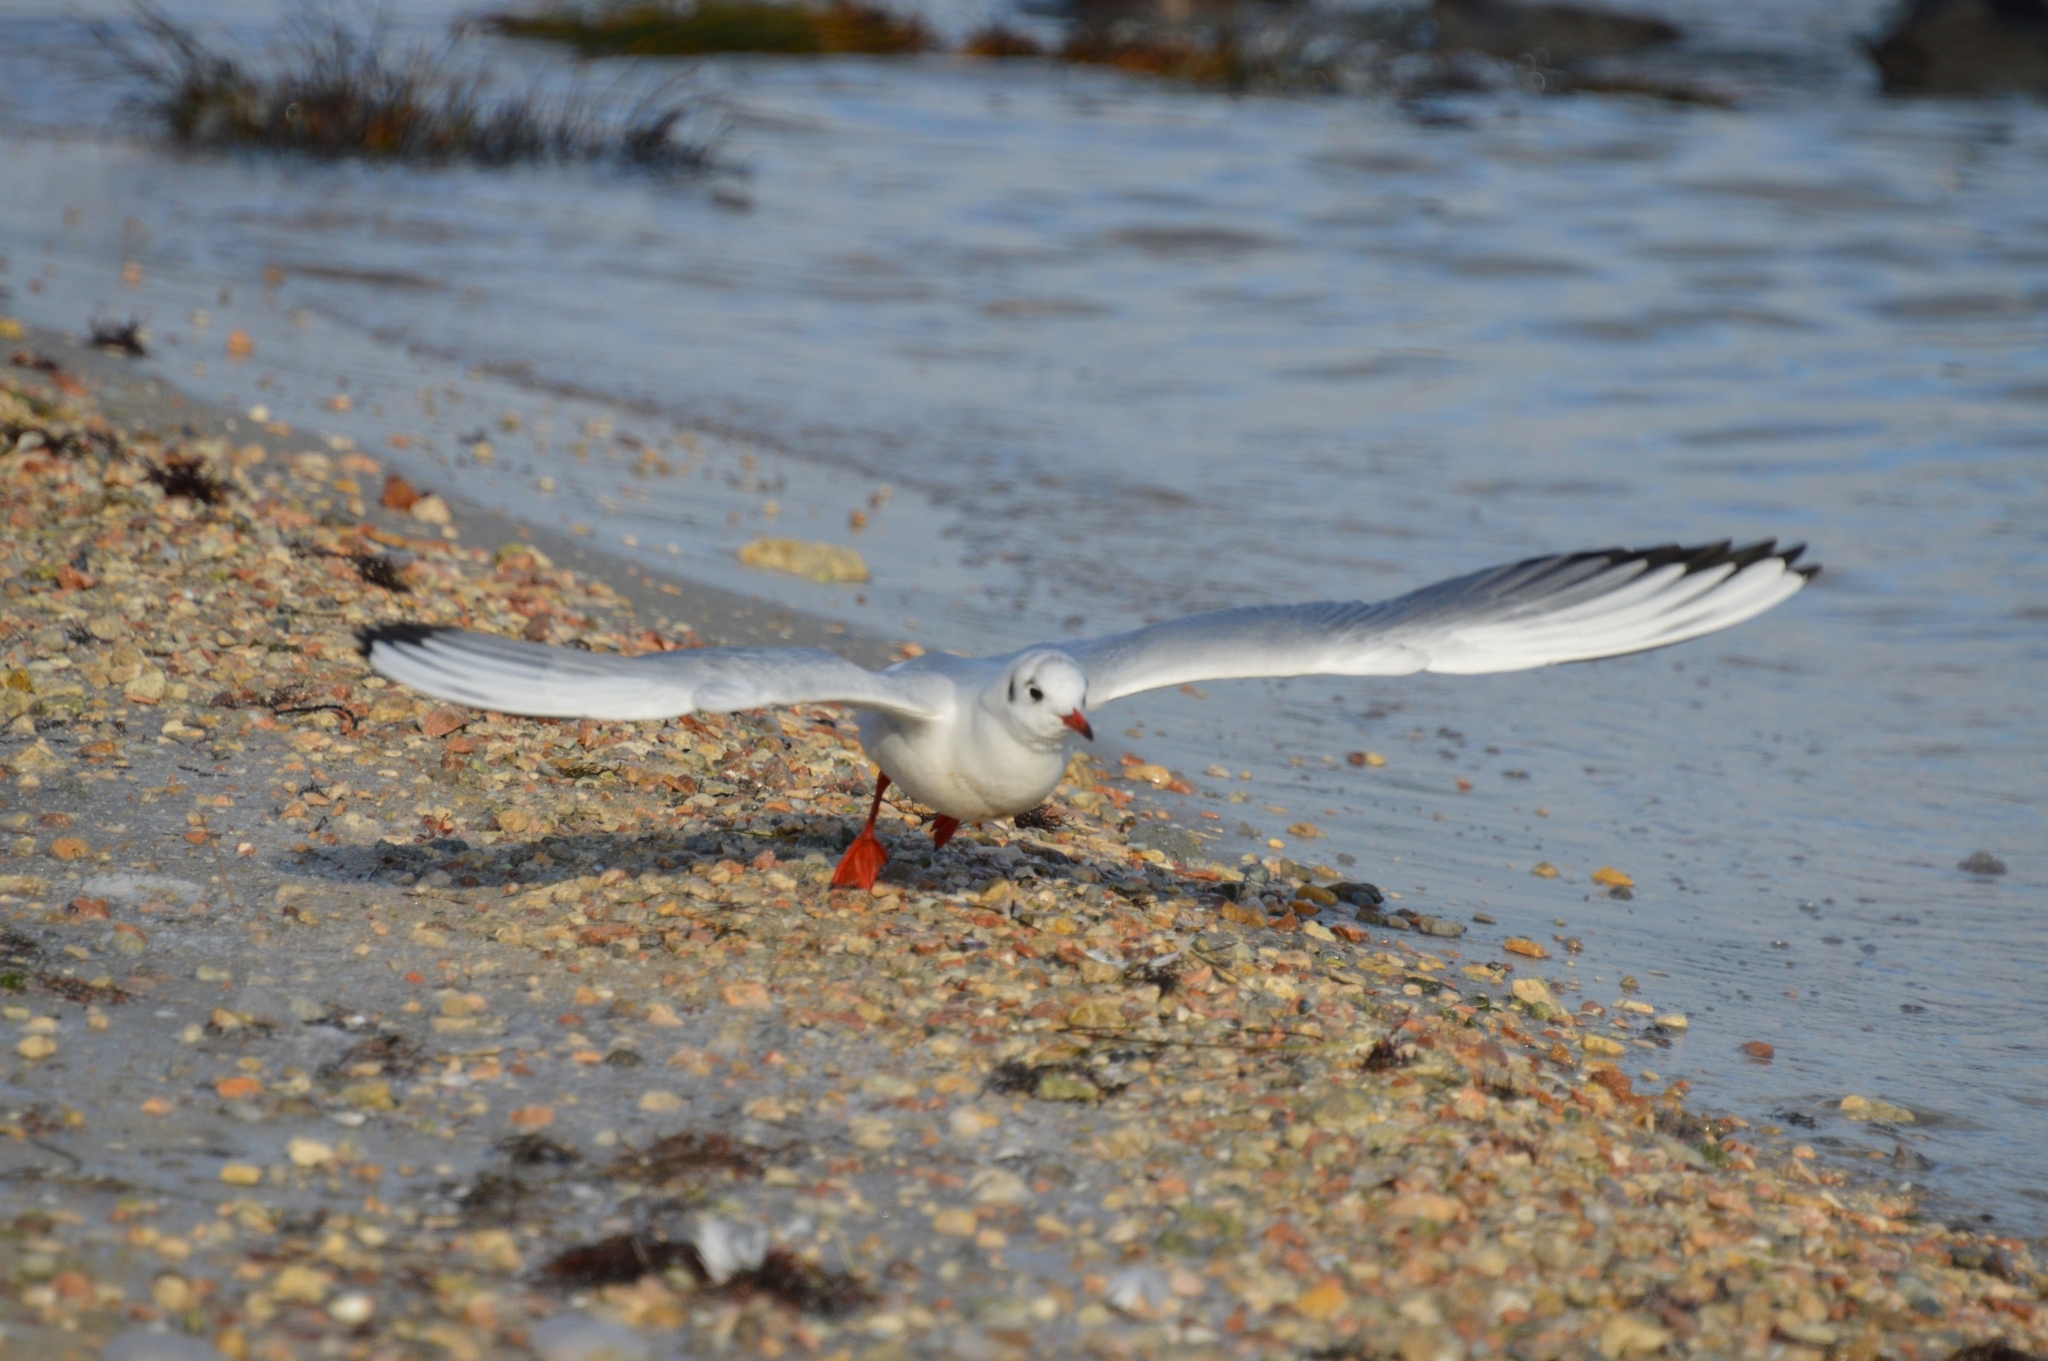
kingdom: Animalia
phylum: Chordata
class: Aves
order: Charadriiformes
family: Laridae
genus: Chroicocephalus
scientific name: Chroicocephalus ridibundus
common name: Black-headed gull
